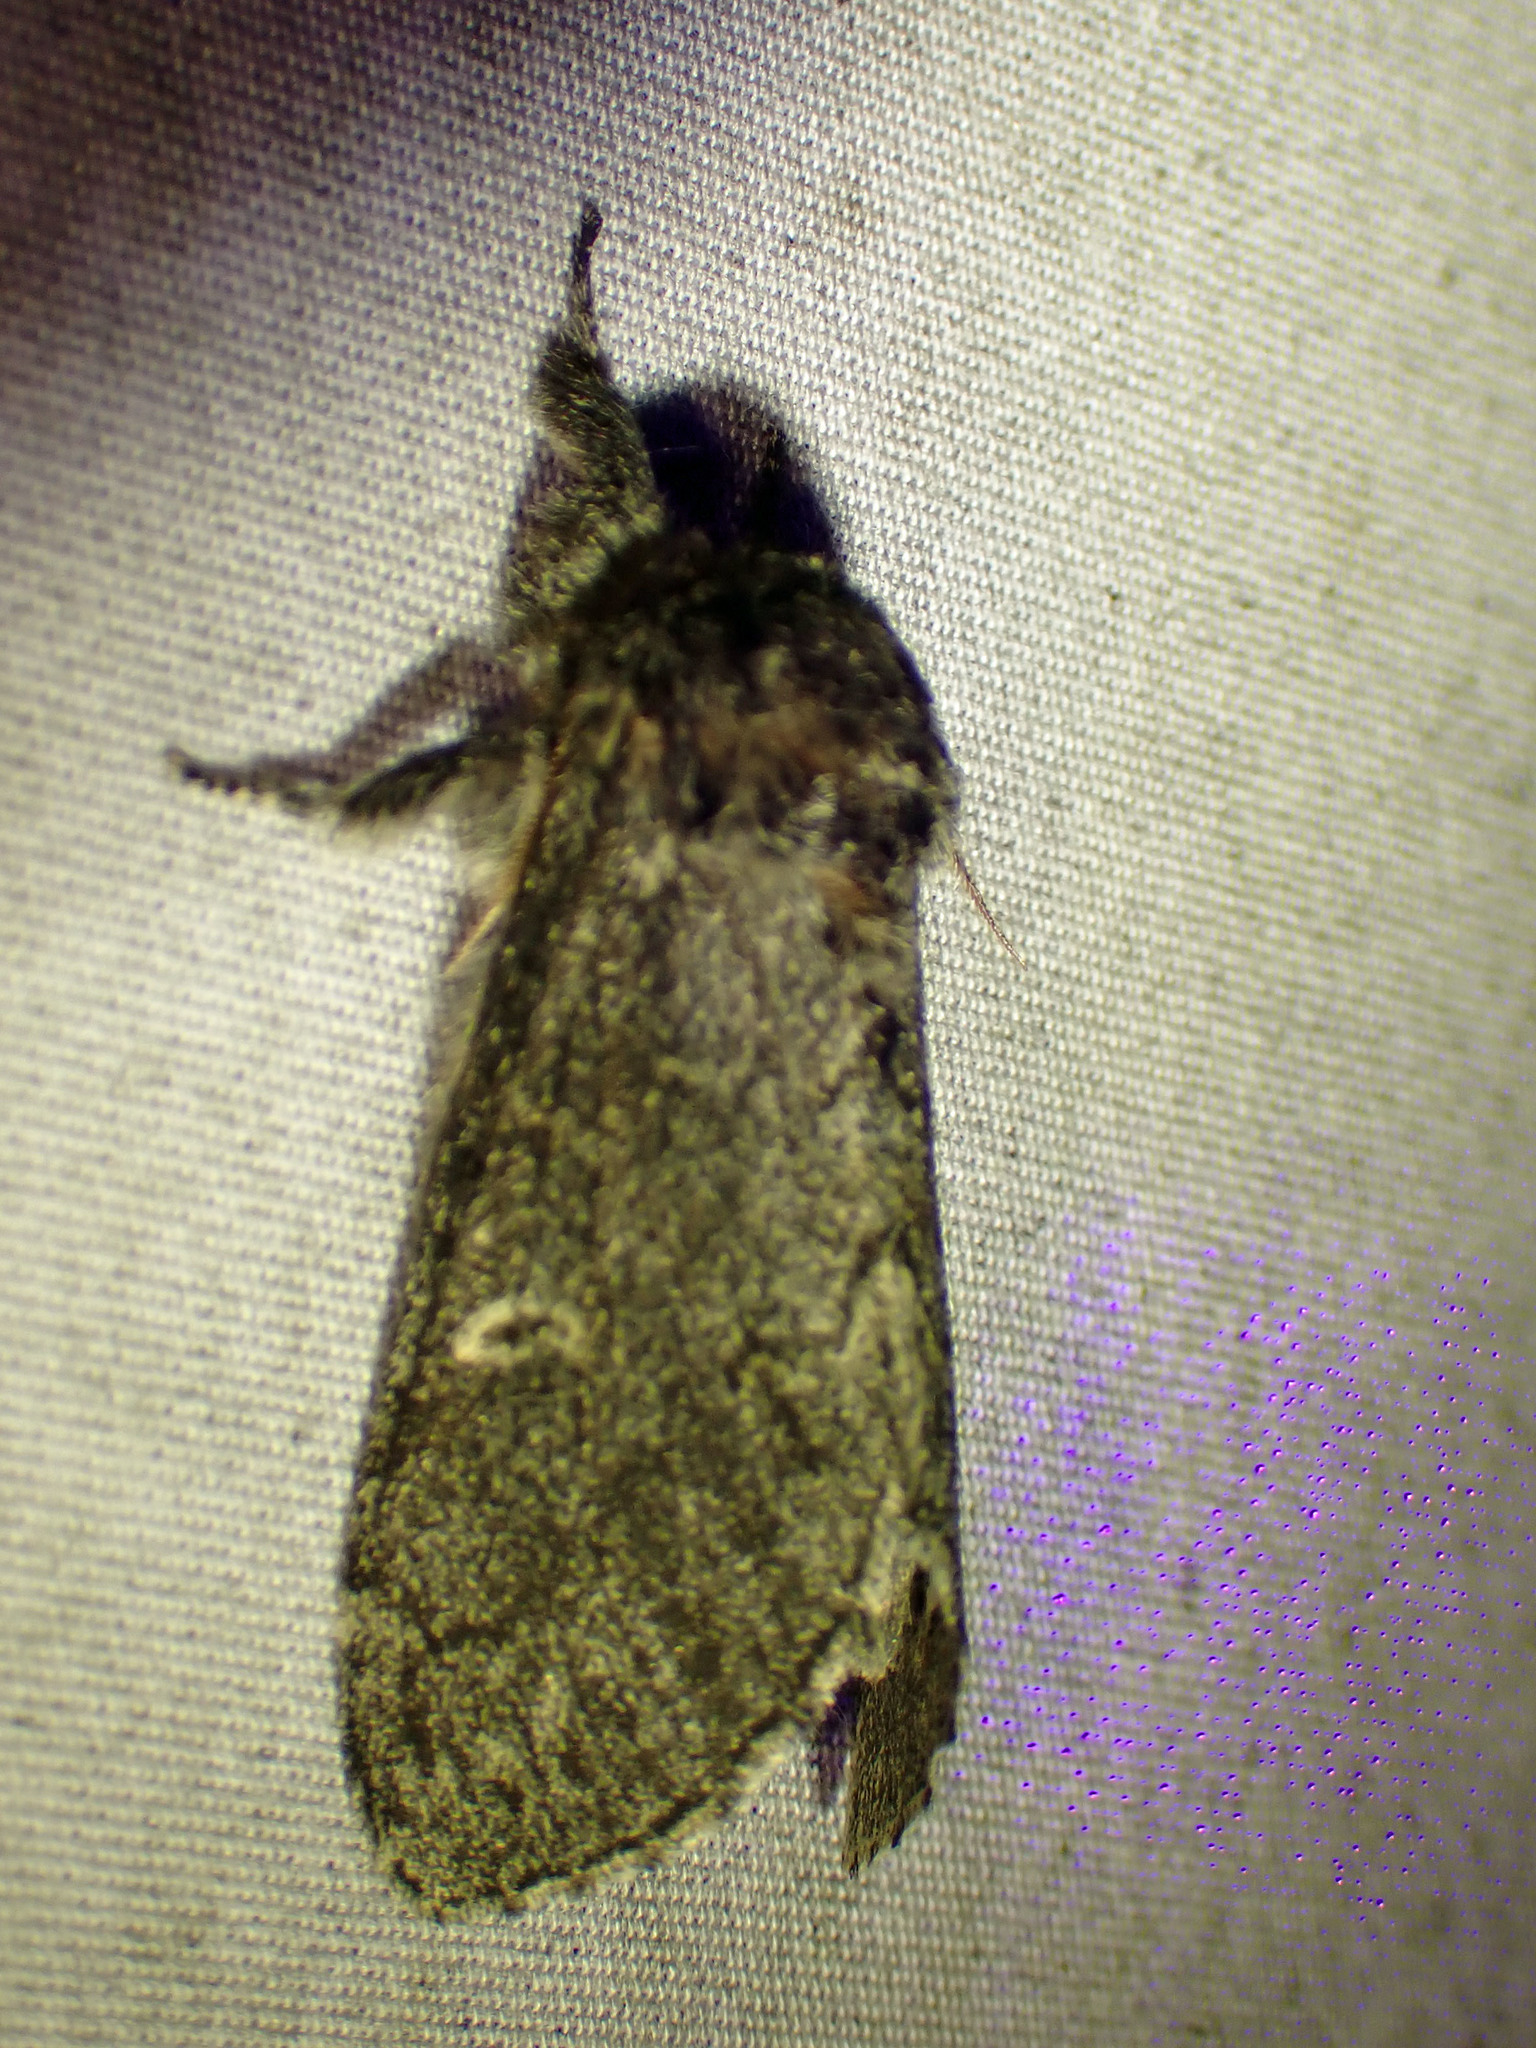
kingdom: Animalia
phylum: Arthropoda
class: Insecta
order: Lepidoptera
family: Notodontidae
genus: Notodonta
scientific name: Notodonta torva
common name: Large dark prominent
